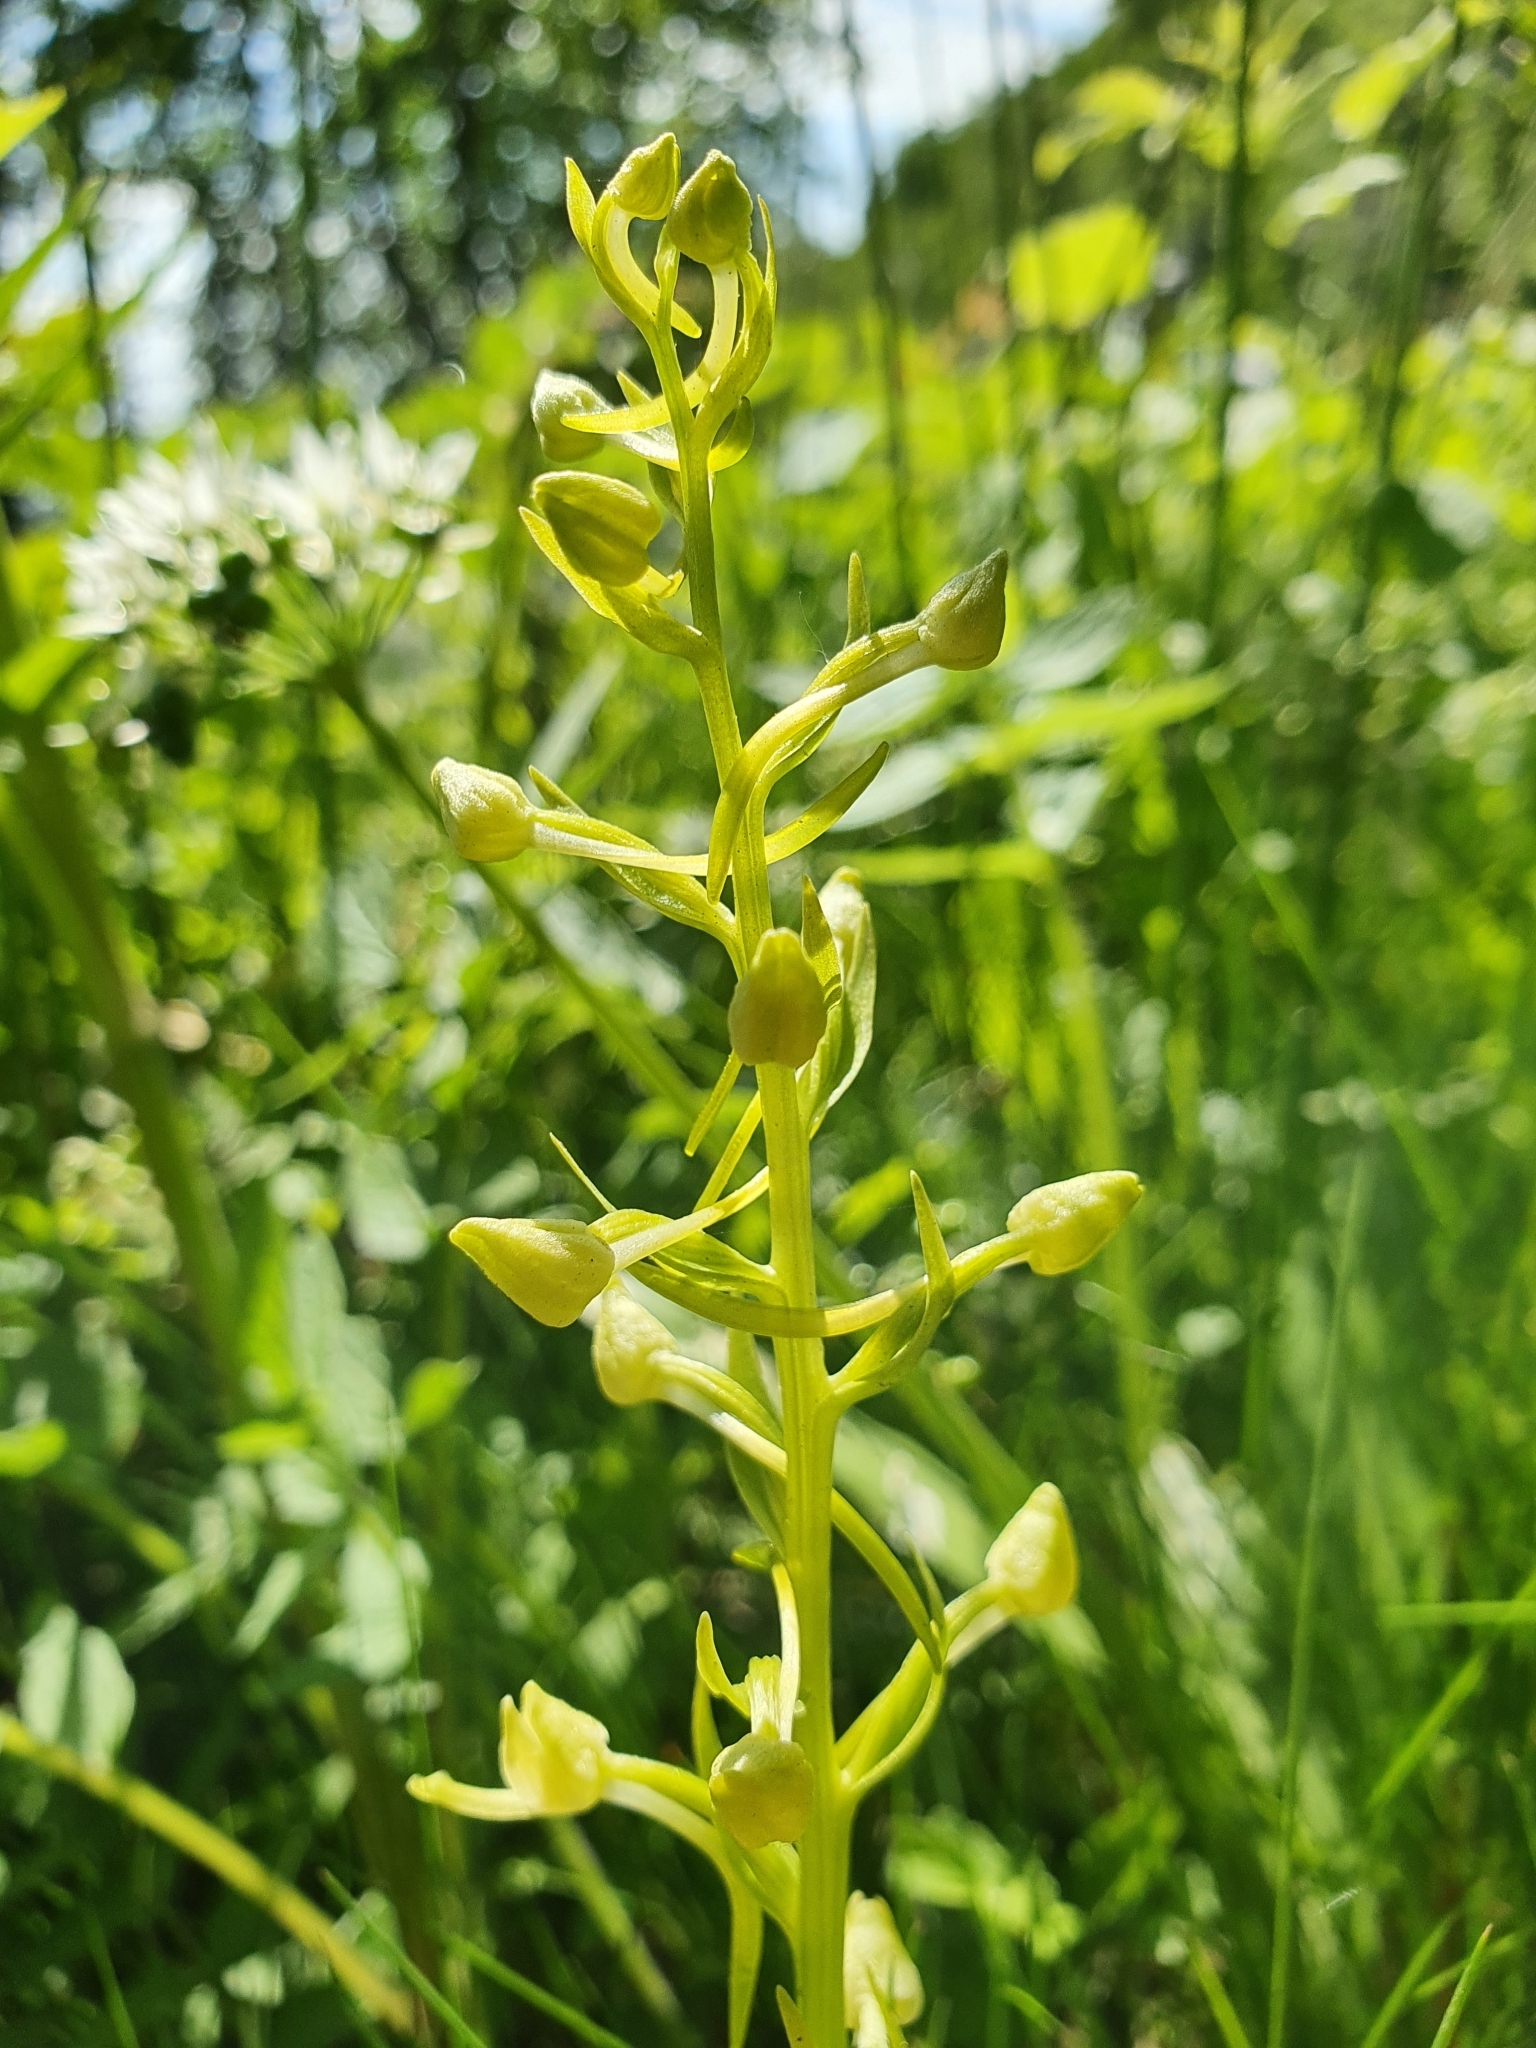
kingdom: Plantae
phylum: Tracheophyta
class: Liliopsida
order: Asparagales
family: Orchidaceae
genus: Platanthera
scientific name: Platanthera chlorantha
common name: Greater butterfly-orchid
